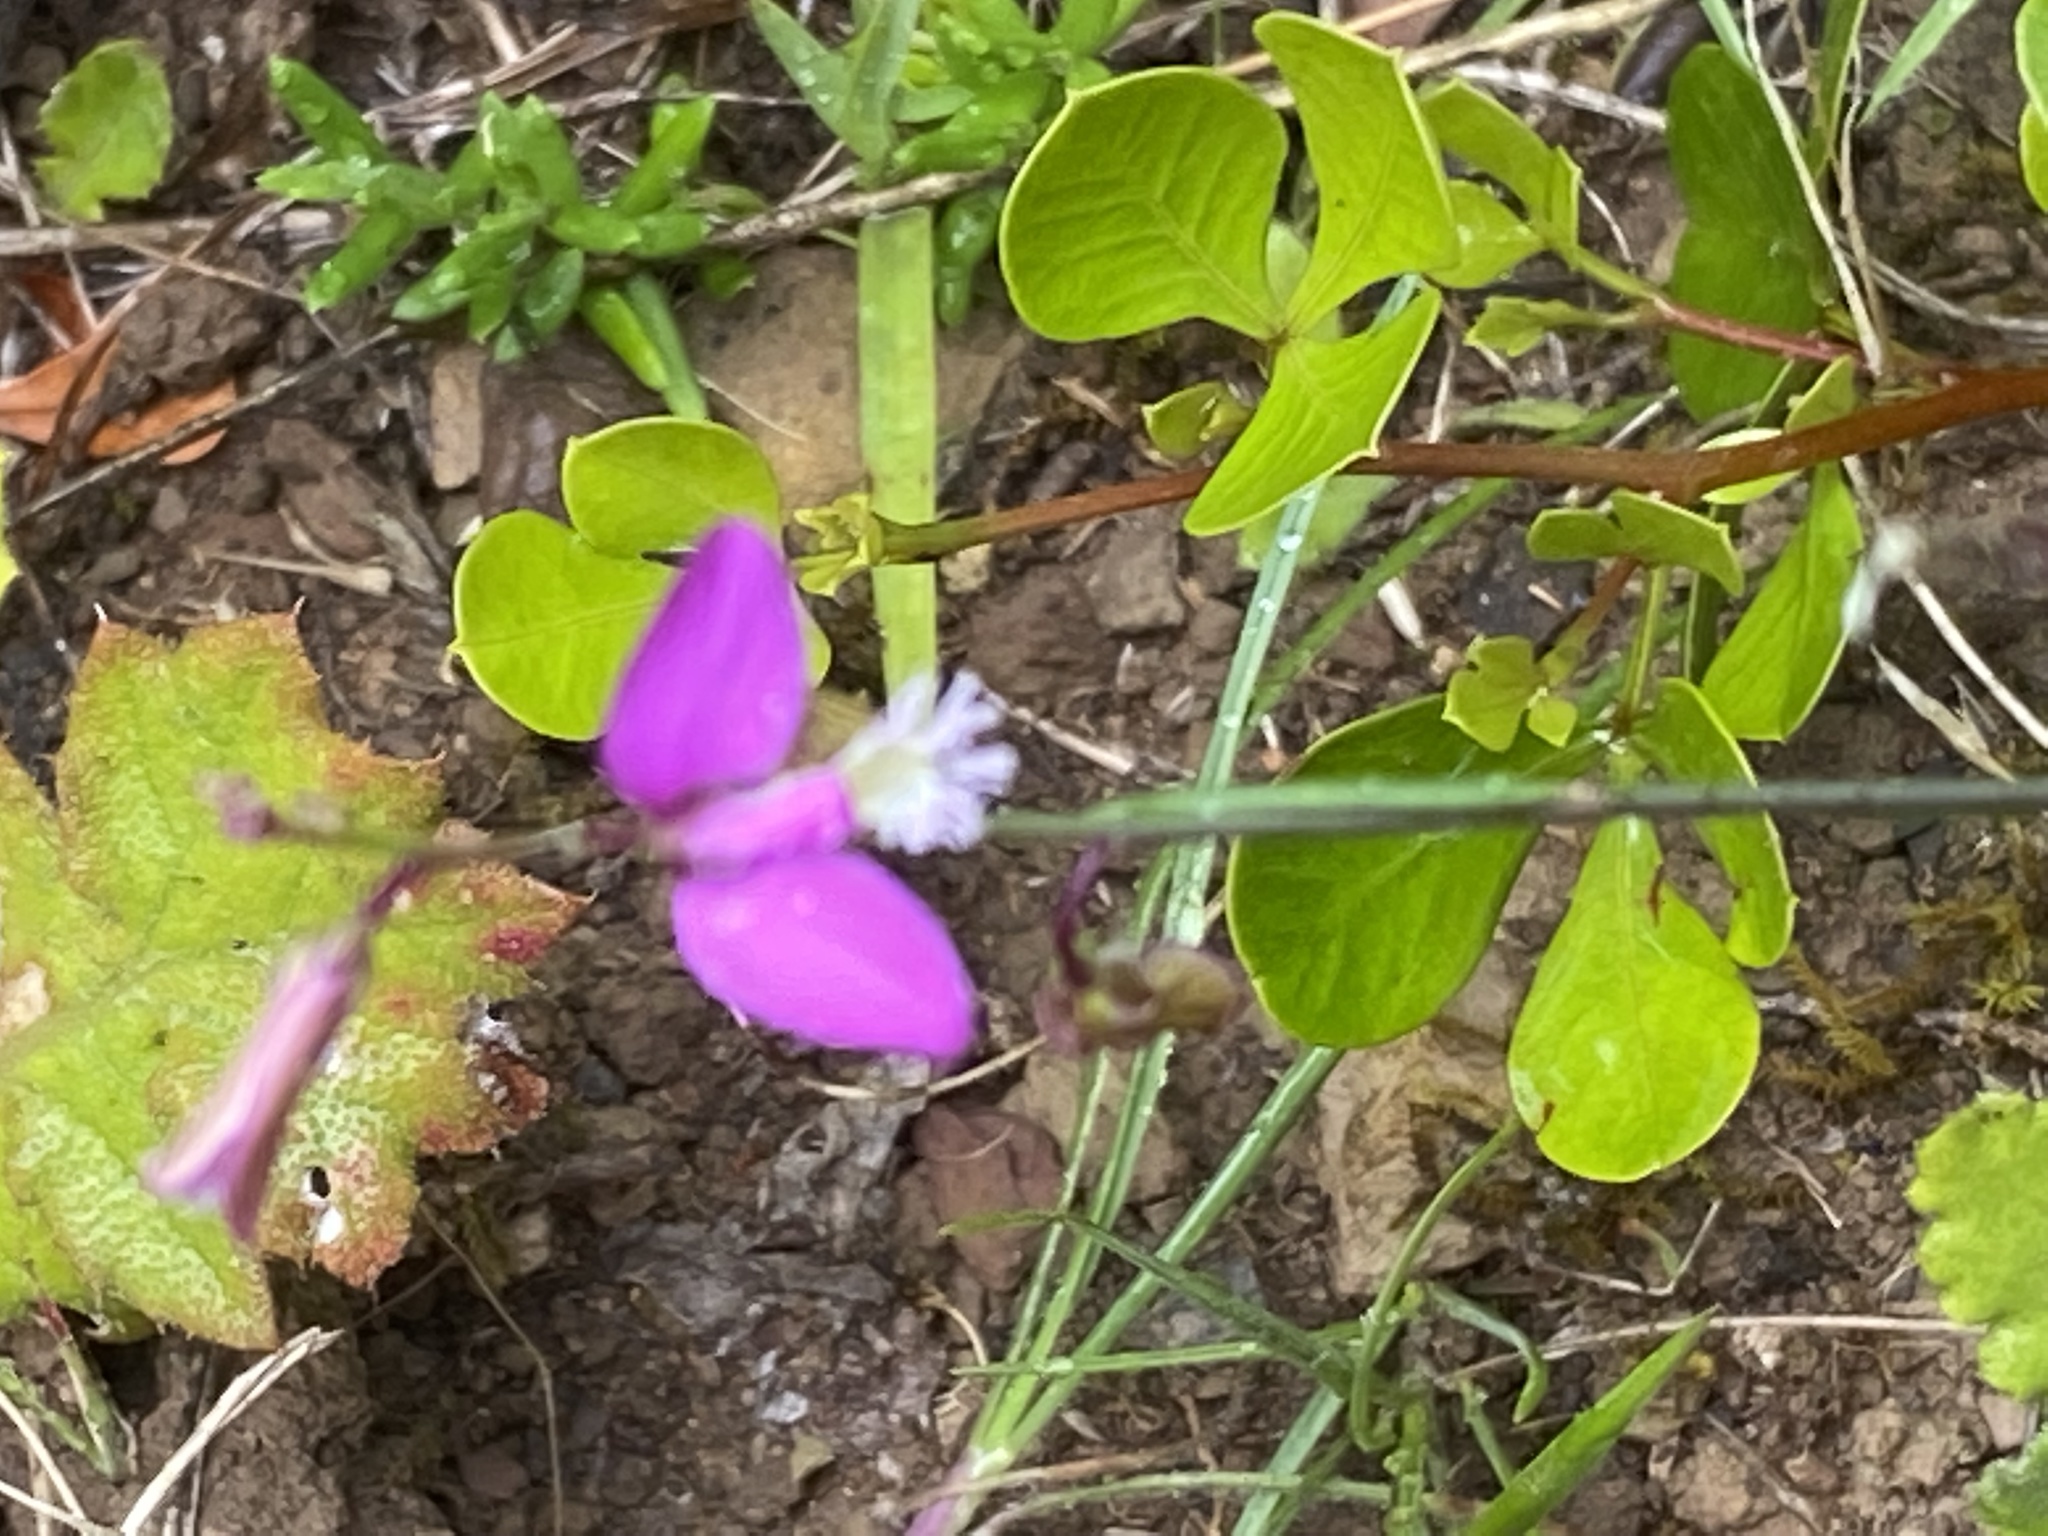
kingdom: Plantae
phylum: Tracheophyta
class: Magnoliopsida
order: Fabales
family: Polygalaceae
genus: Polygala
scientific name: Polygala garcini
